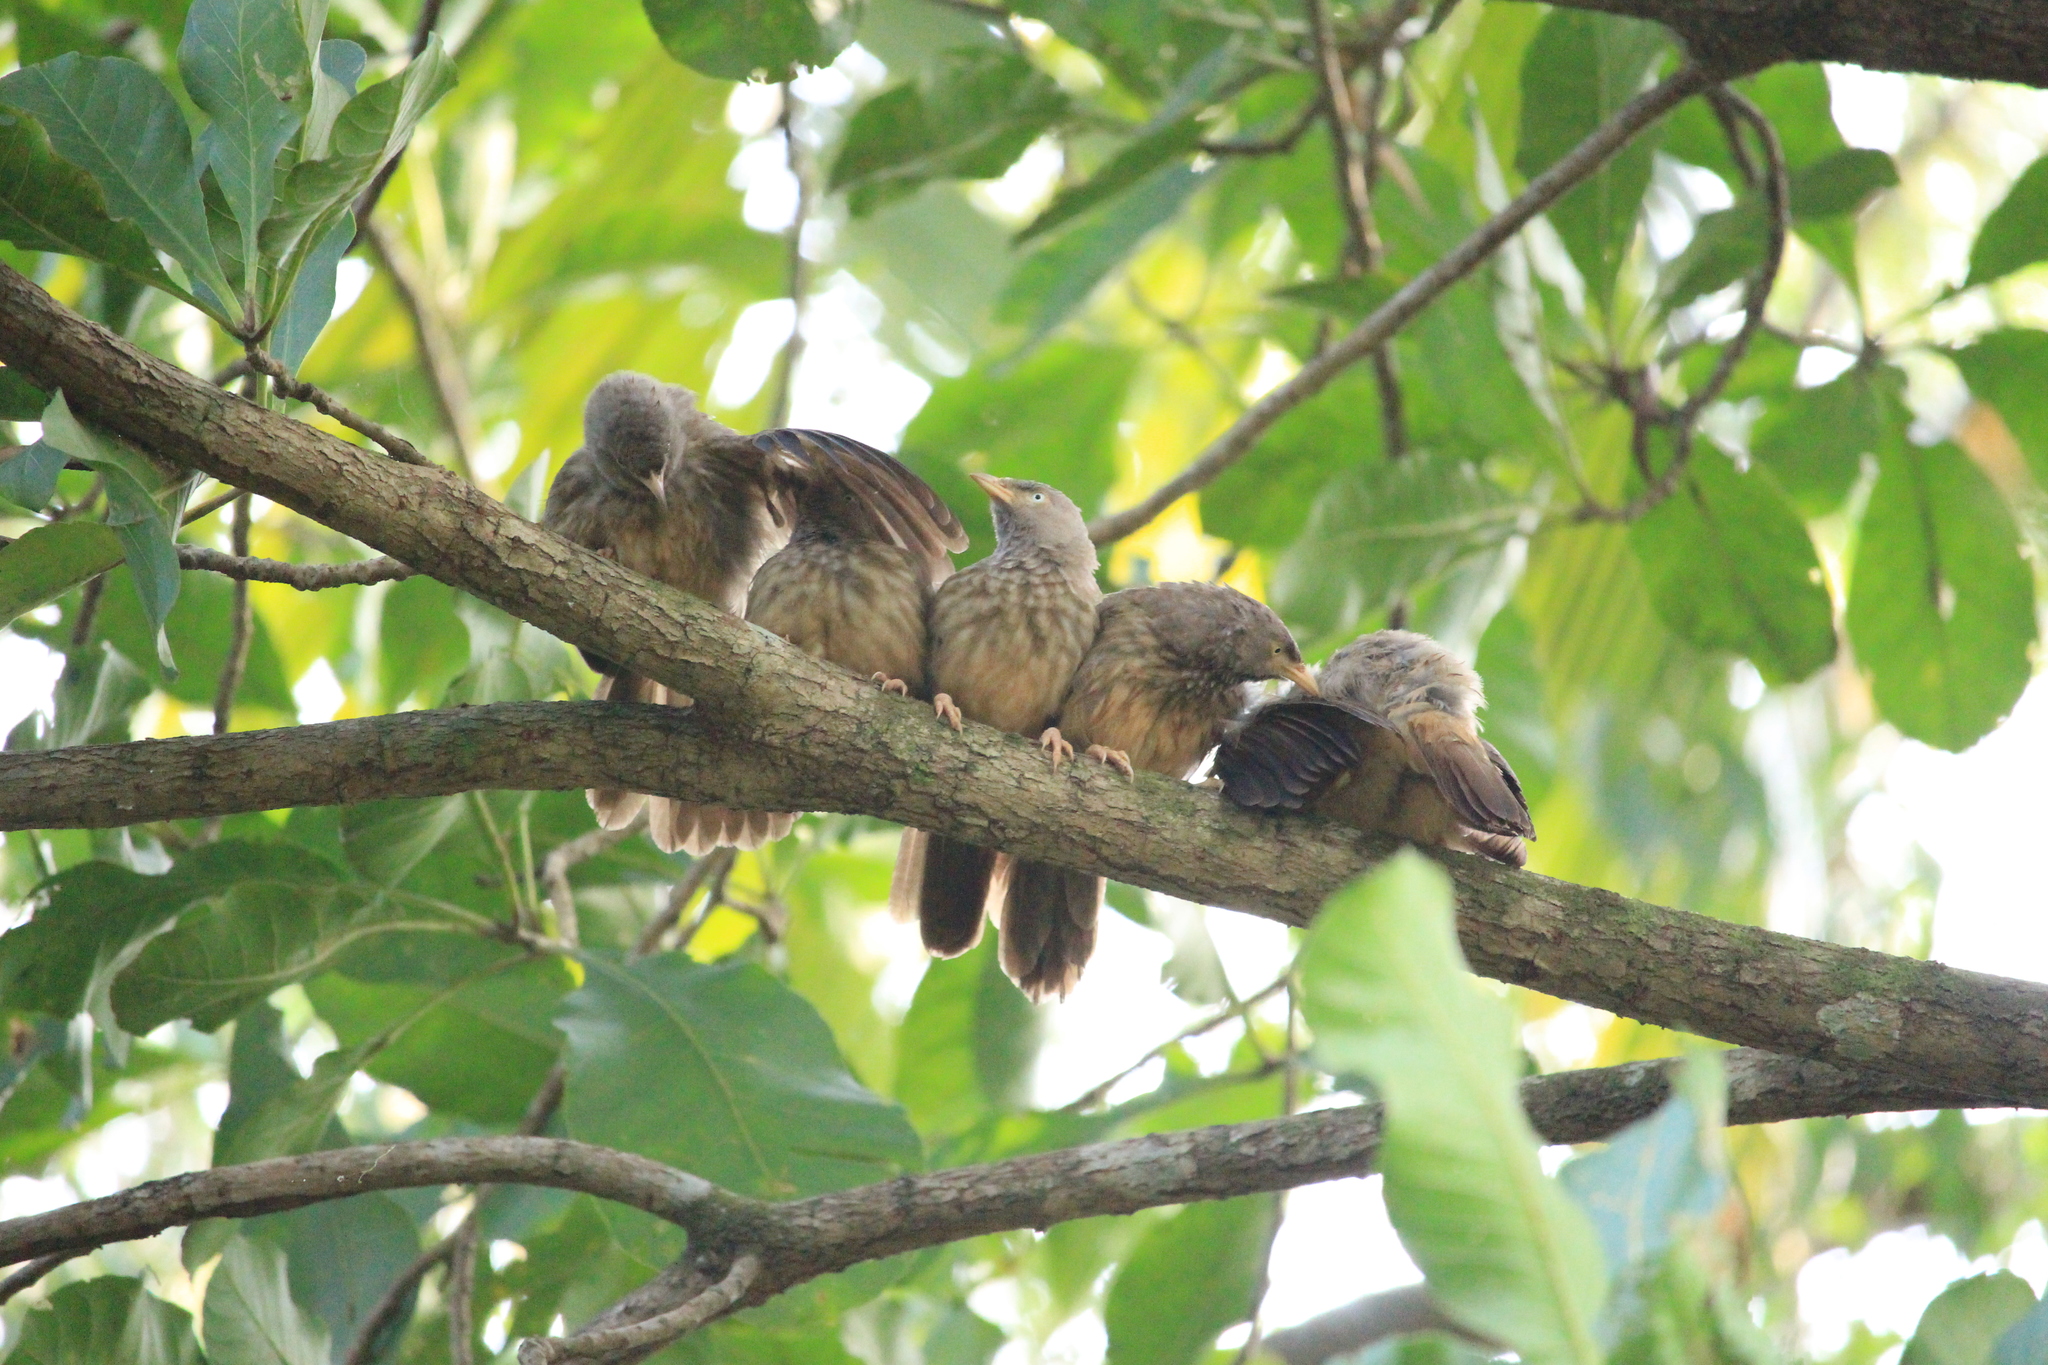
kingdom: Animalia
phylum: Chordata
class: Aves
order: Passeriformes
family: Leiothrichidae
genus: Turdoides
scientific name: Turdoides striata
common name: Jungle babbler
